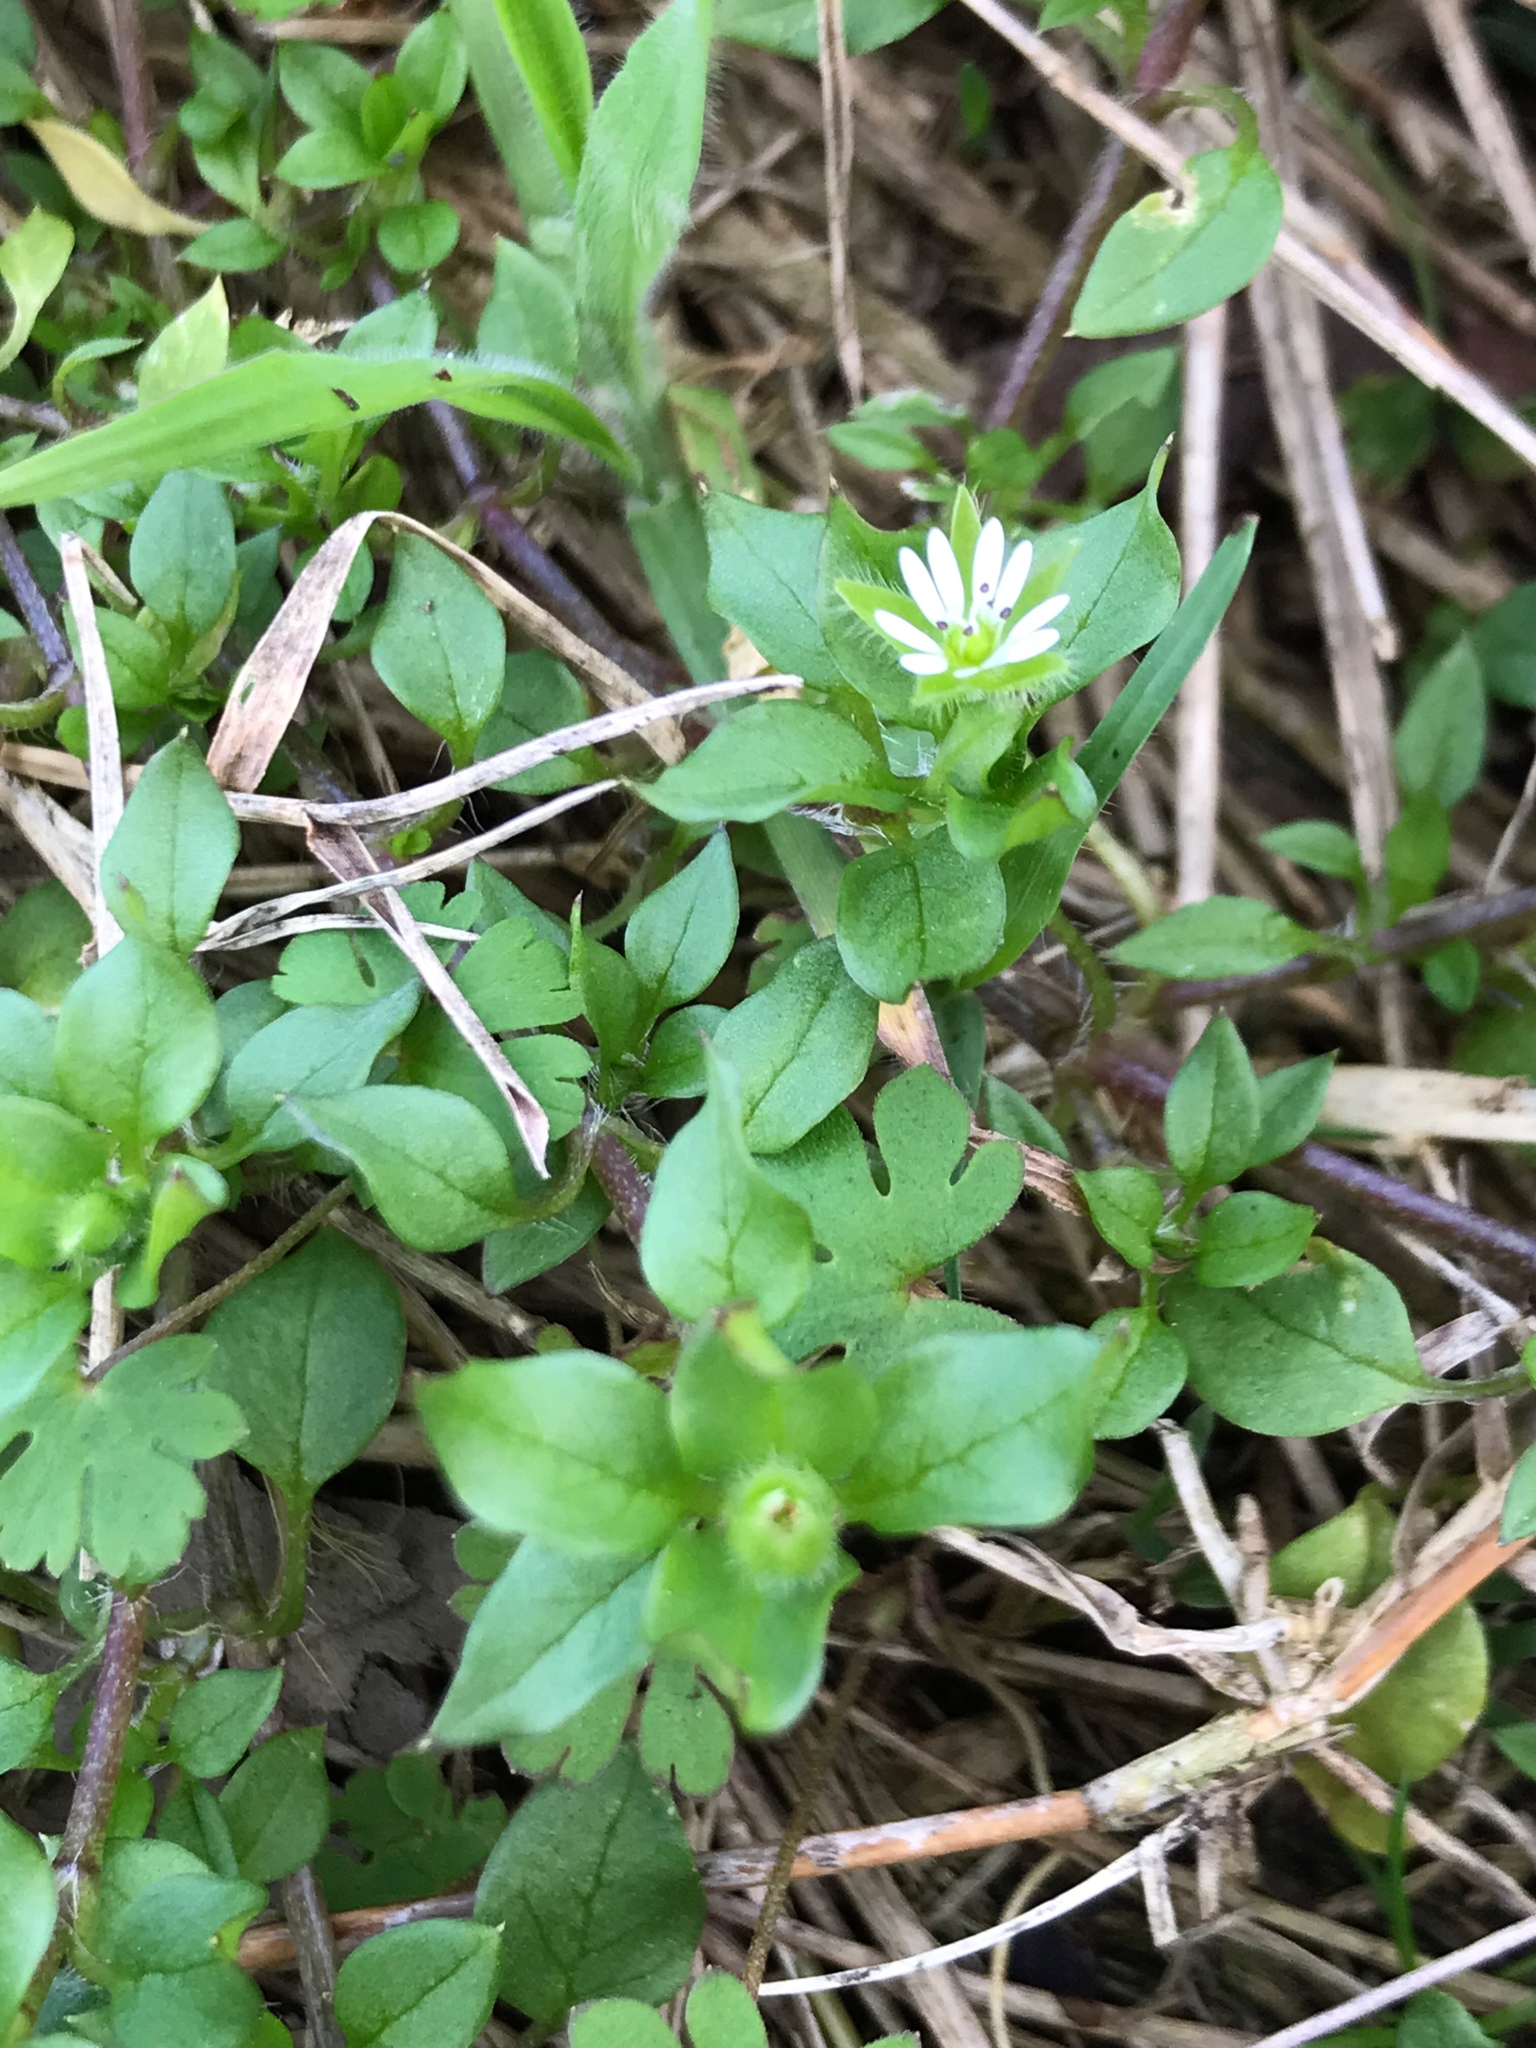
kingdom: Plantae
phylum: Tracheophyta
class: Magnoliopsida
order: Caryophyllales
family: Caryophyllaceae
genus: Stellaria
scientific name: Stellaria media
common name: Common chickweed
